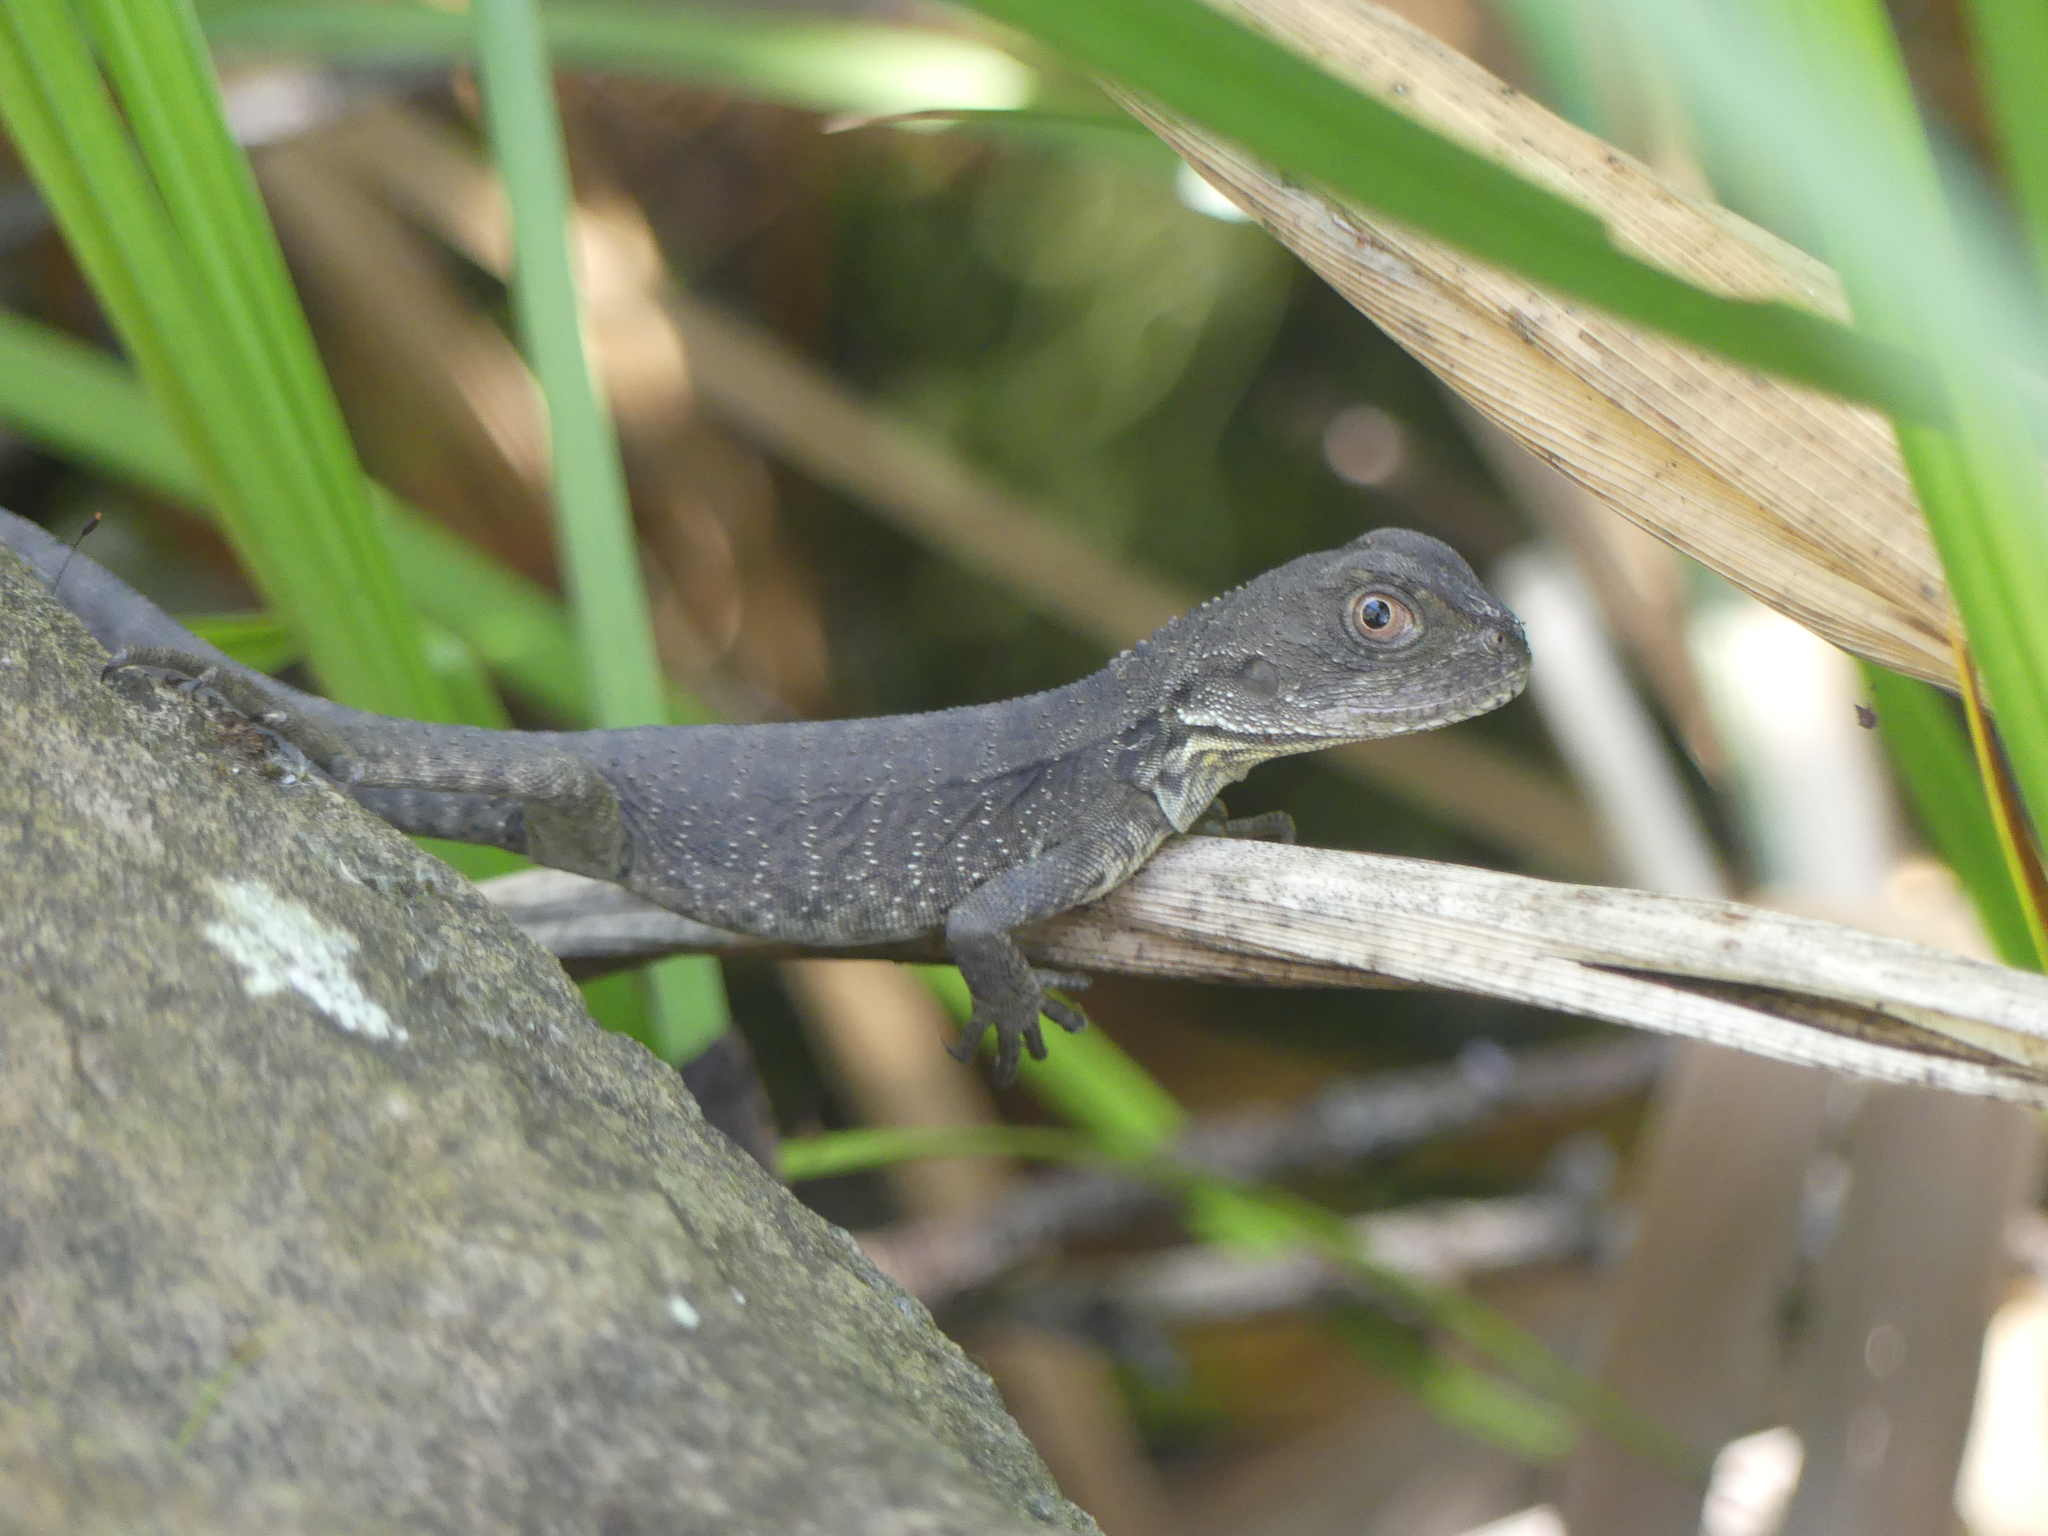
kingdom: Animalia
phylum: Chordata
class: Squamata
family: Agamidae
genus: Intellagama
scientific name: Intellagama lesueurii
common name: Eastern water dragon
